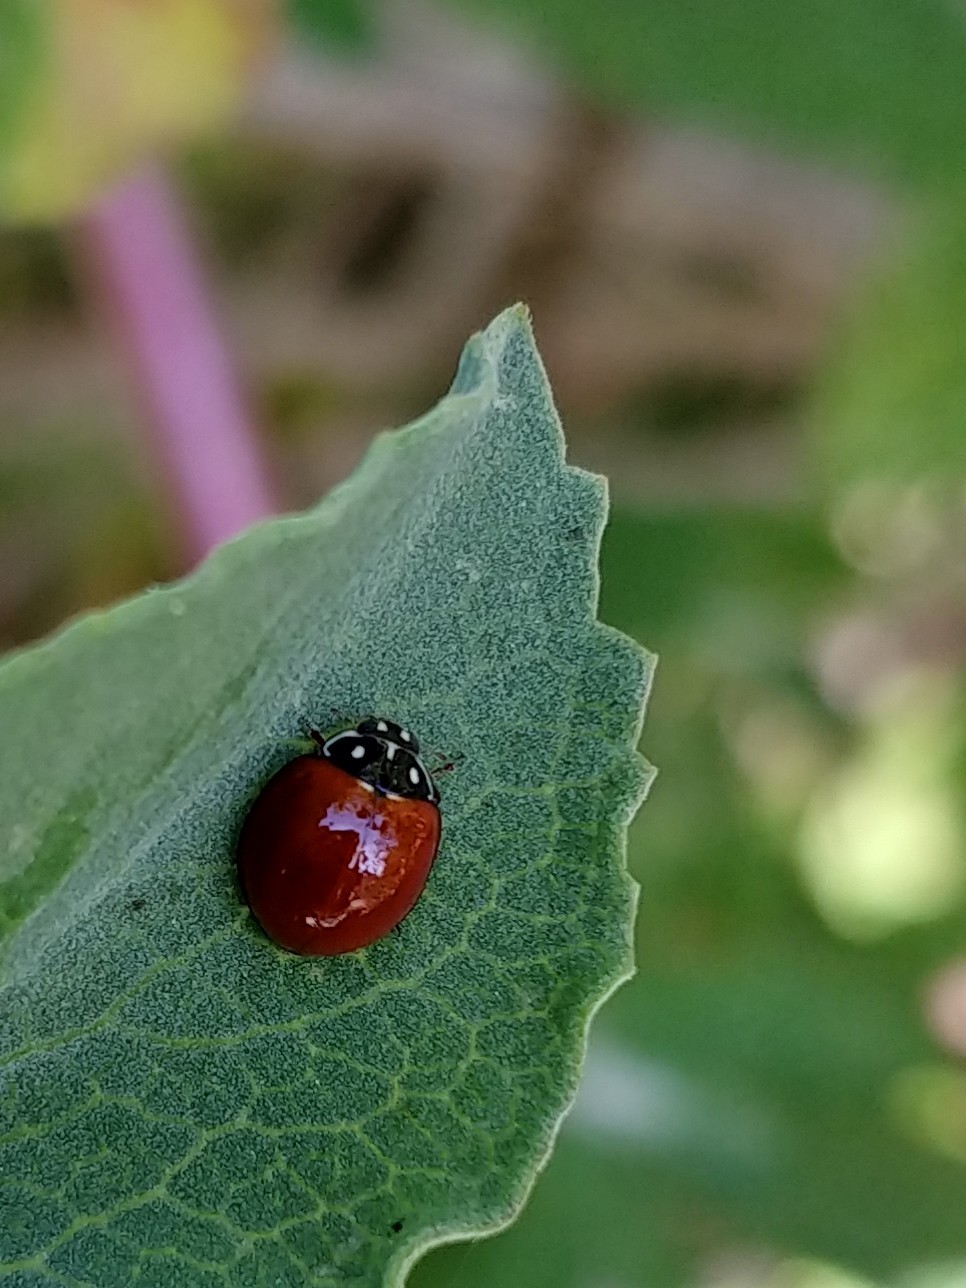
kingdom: Animalia
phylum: Arthropoda
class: Insecta
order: Coleoptera
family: Coccinellidae
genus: Cycloneda
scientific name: Cycloneda sanguinea
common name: Ladybird beetle
